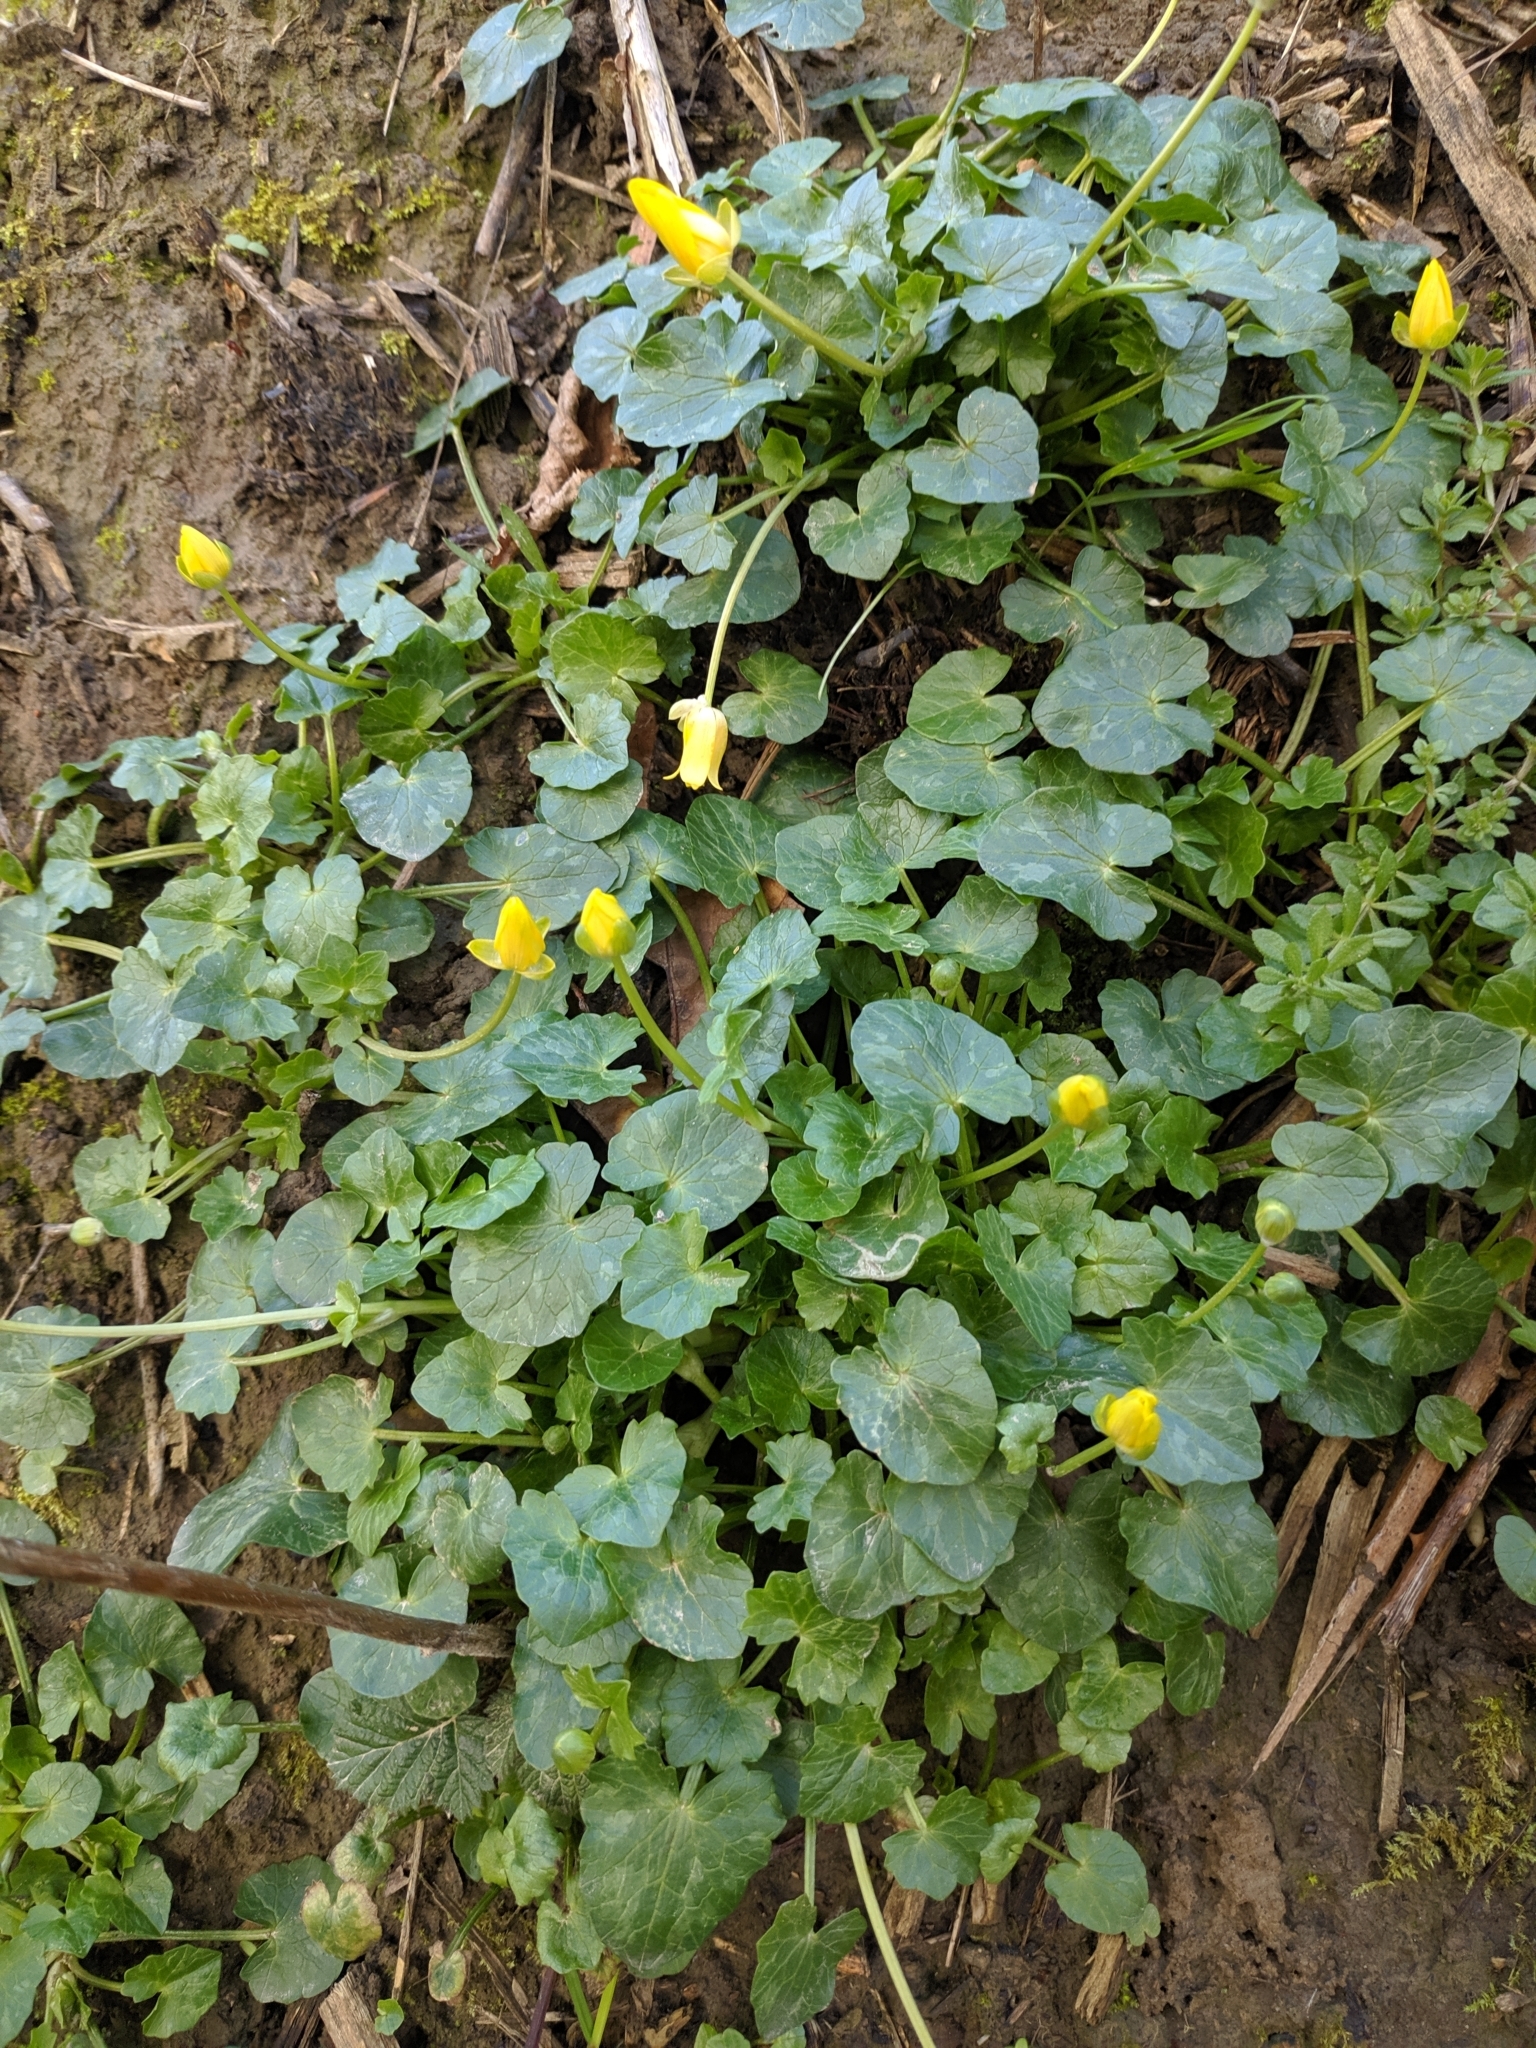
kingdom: Plantae
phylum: Tracheophyta
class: Magnoliopsida
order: Ranunculales
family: Ranunculaceae
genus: Ficaria
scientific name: Ficaria verna
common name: Lesser celandine
